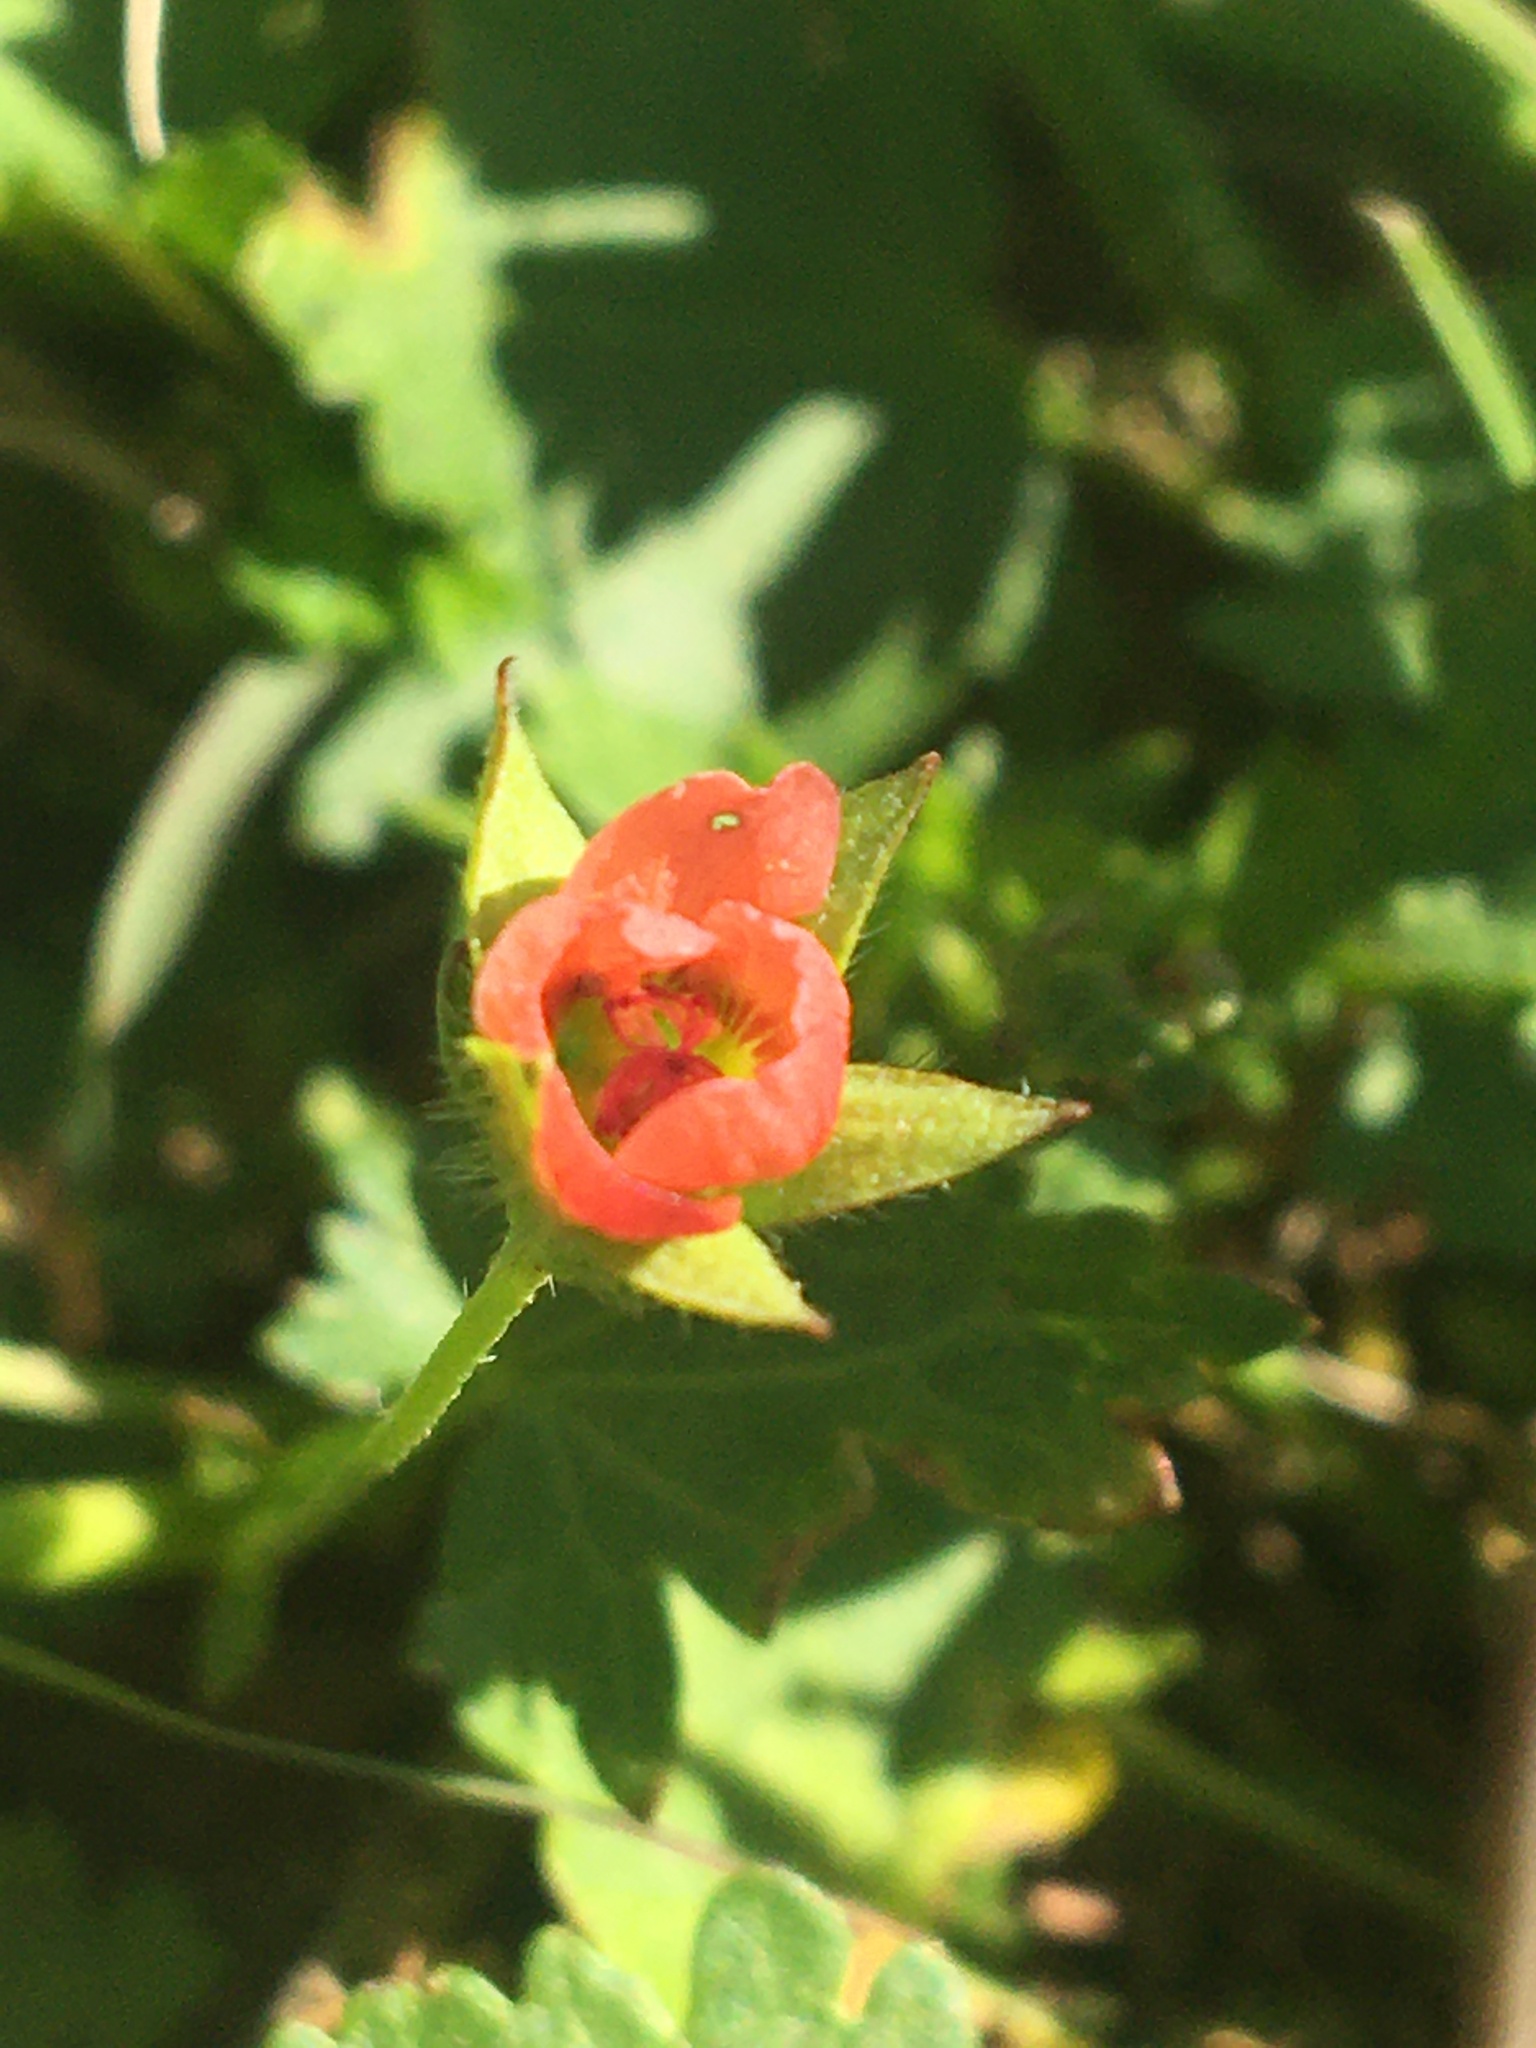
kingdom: Plantae
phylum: Tracheophyta
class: Magnoliopsida
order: Malvales
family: Malvaceae
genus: Modiola
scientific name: Modiola caroliniana
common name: Carolina bristlemallow
